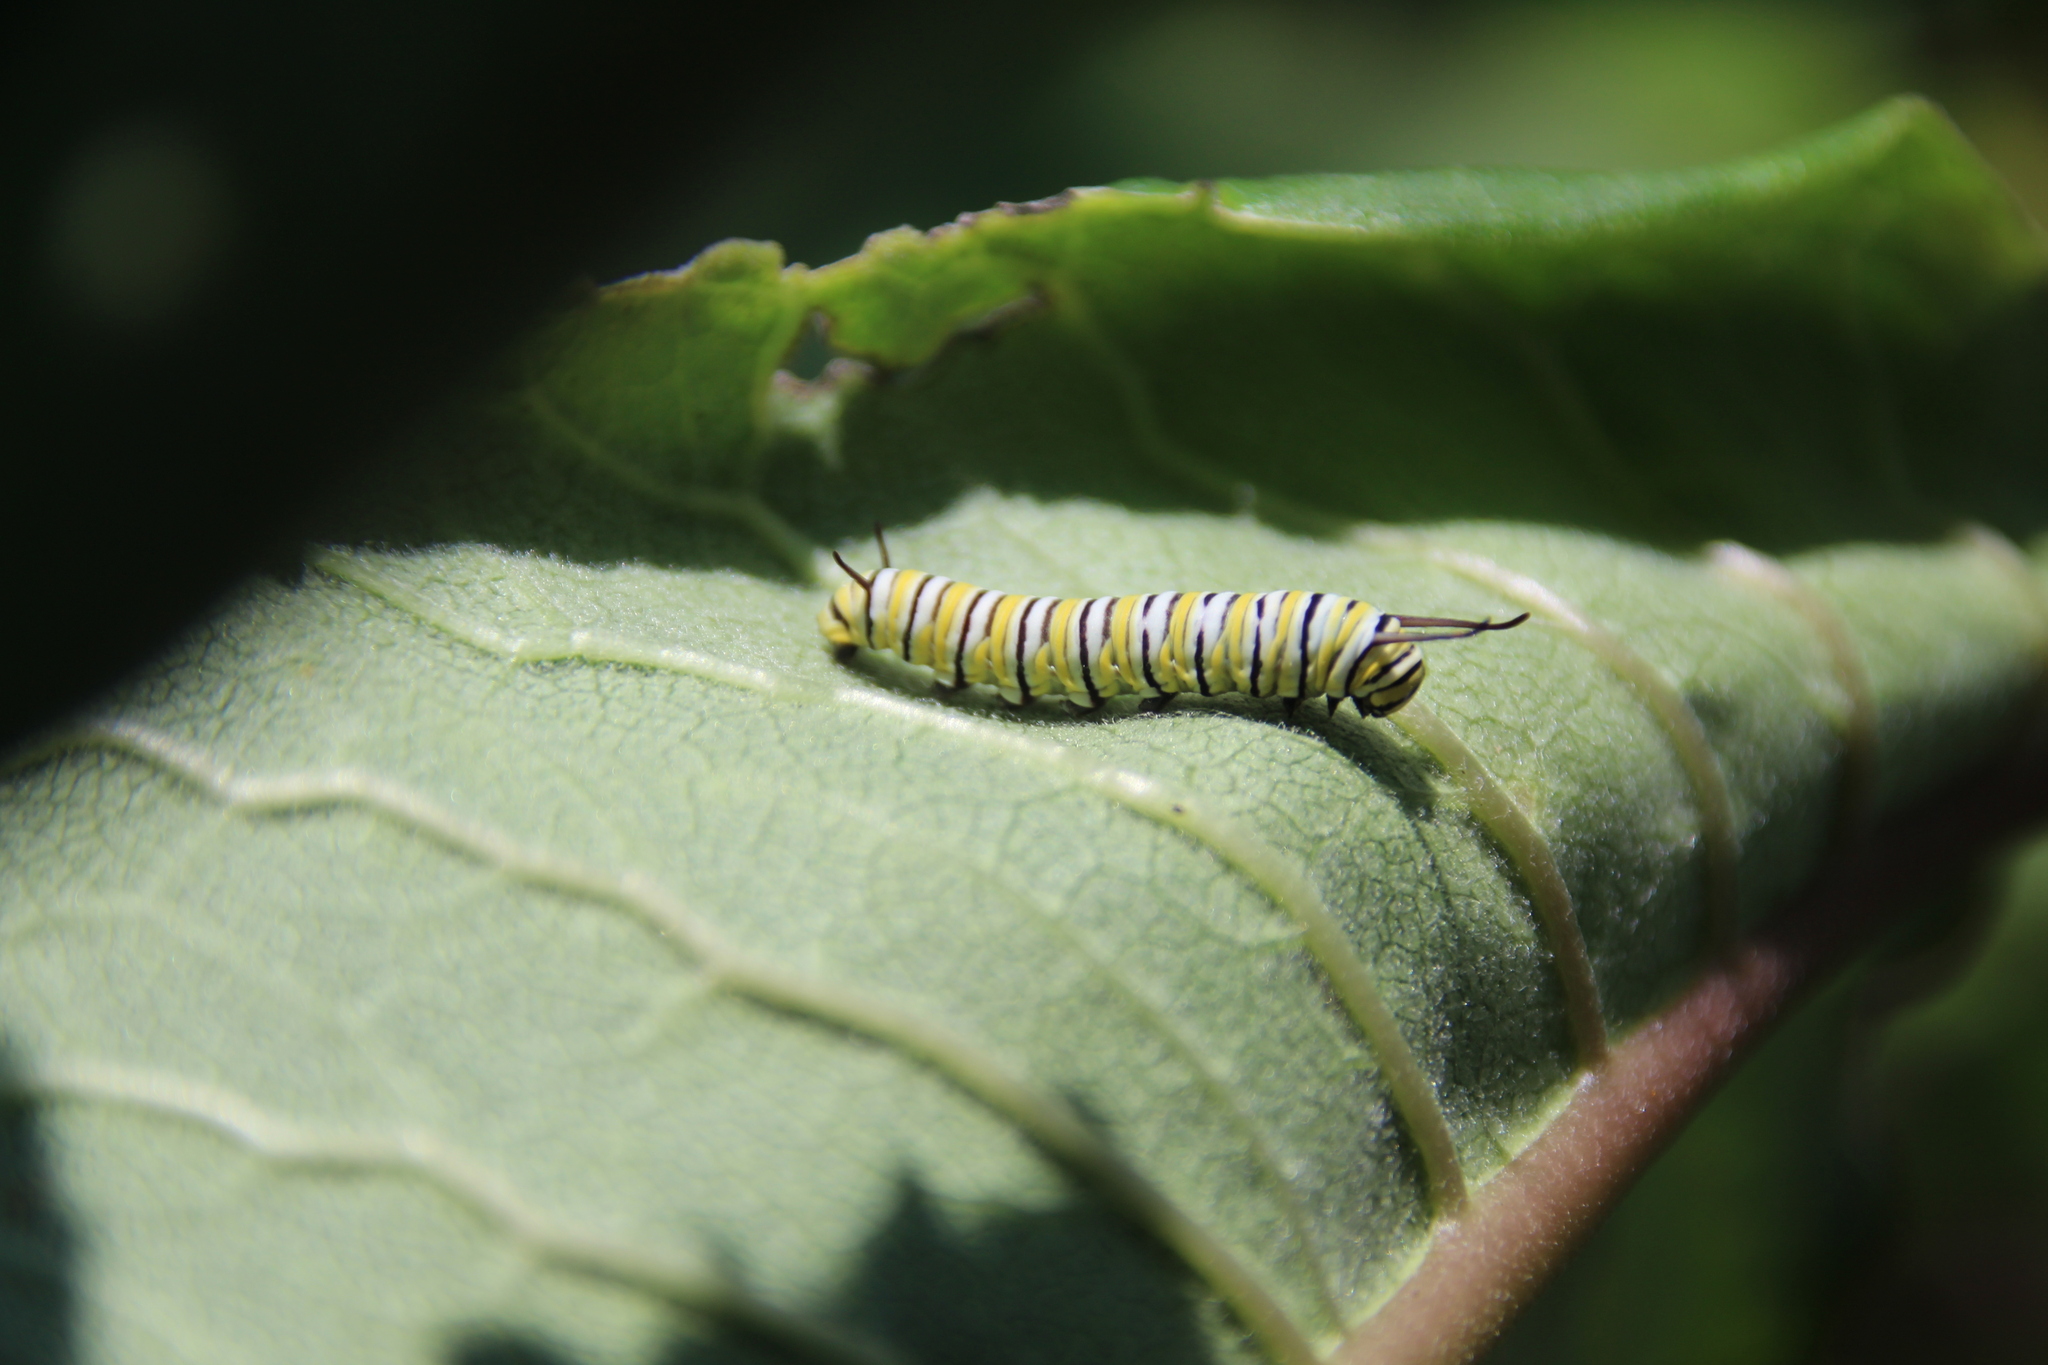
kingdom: Animalia
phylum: Arthropoda
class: Insecta
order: Lepidoptera
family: Nymphalidae
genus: Danaus
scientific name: Danaus plexippus
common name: Monarch
